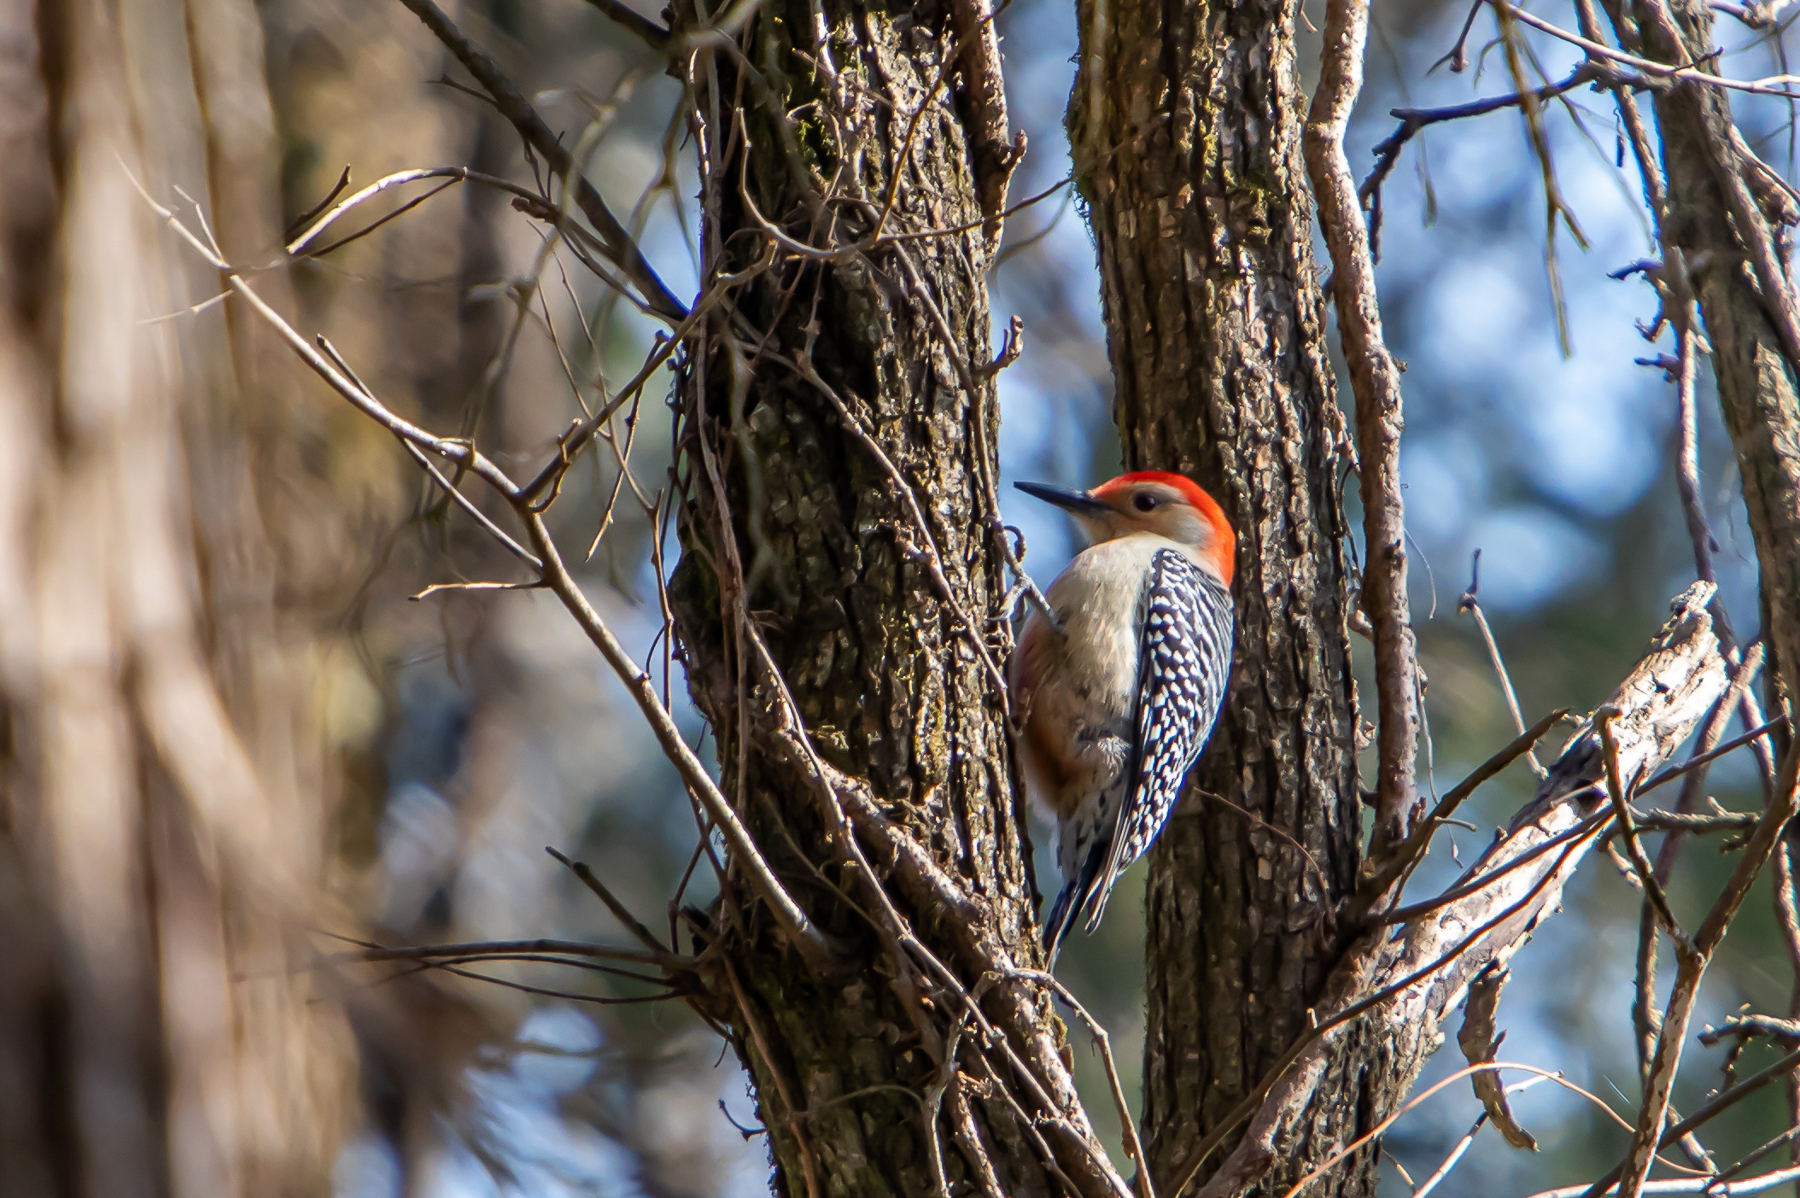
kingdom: Animalia
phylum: Chordata
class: Aves
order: Piciformes
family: Picidae
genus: Melanerpes
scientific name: Melanerpes carolinus
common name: Red-bellied woodpecker
